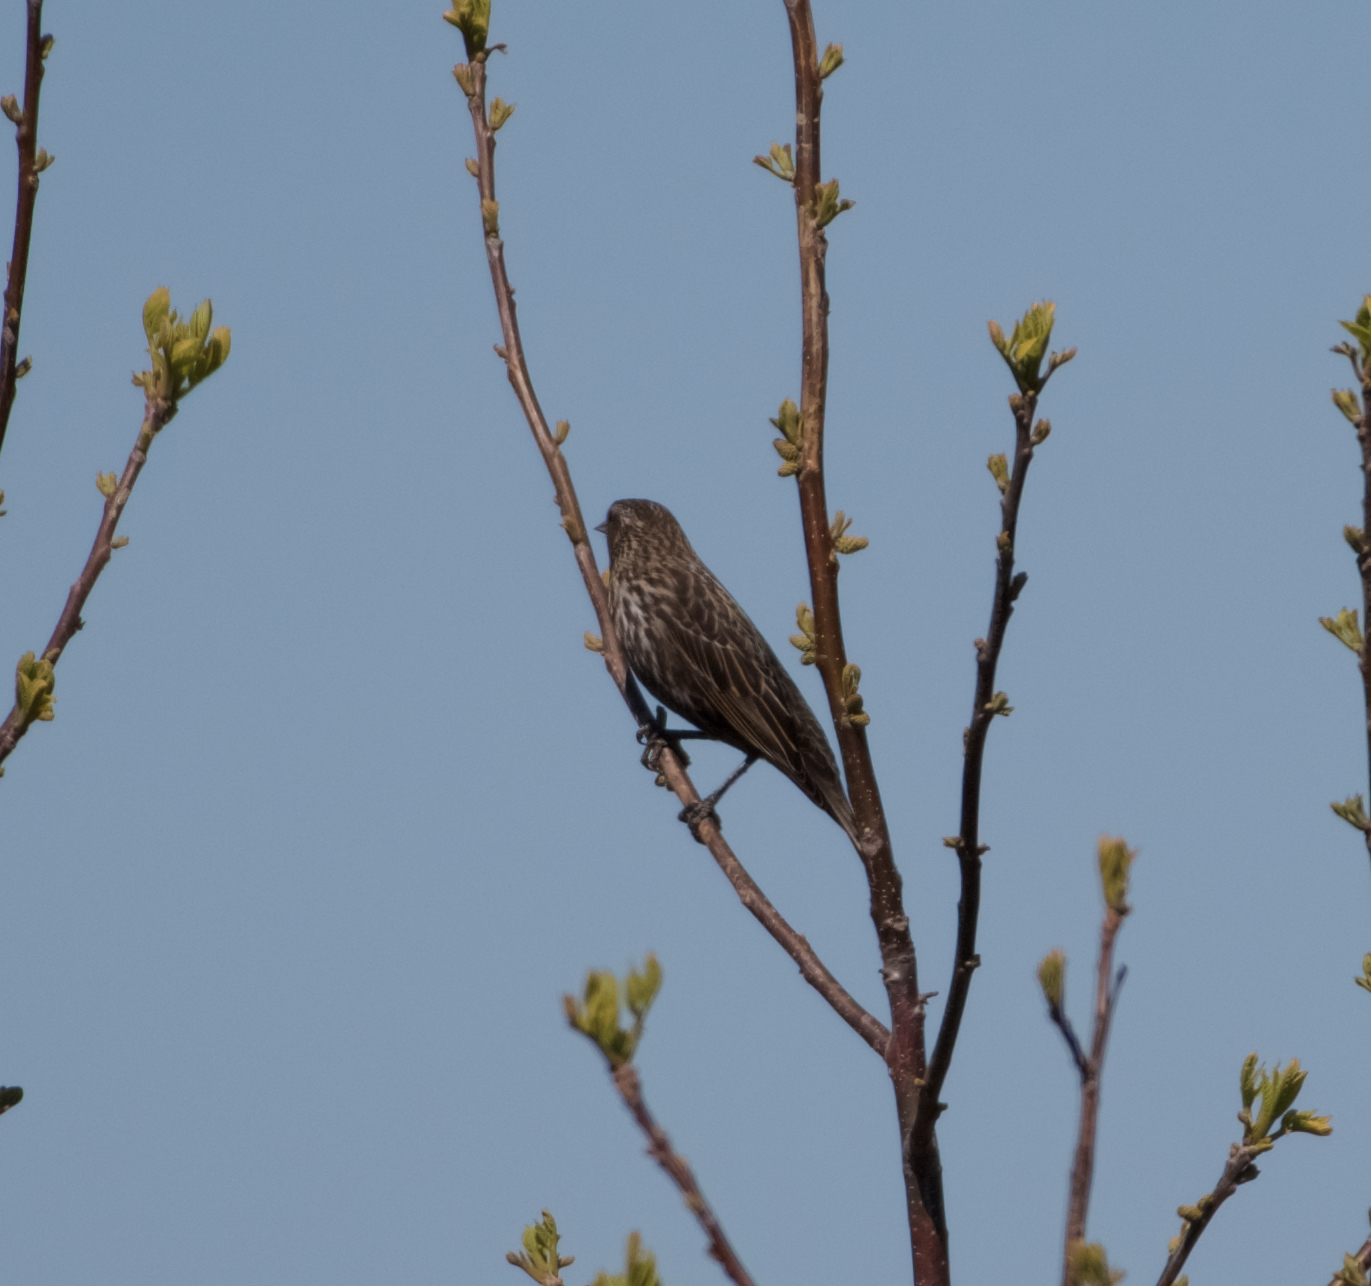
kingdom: Animalia
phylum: Chordata
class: Aves
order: Passeriformes
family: Icteridae
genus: Agelaius
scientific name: Agelaius phoeniceus
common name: Red-winged blackbird
